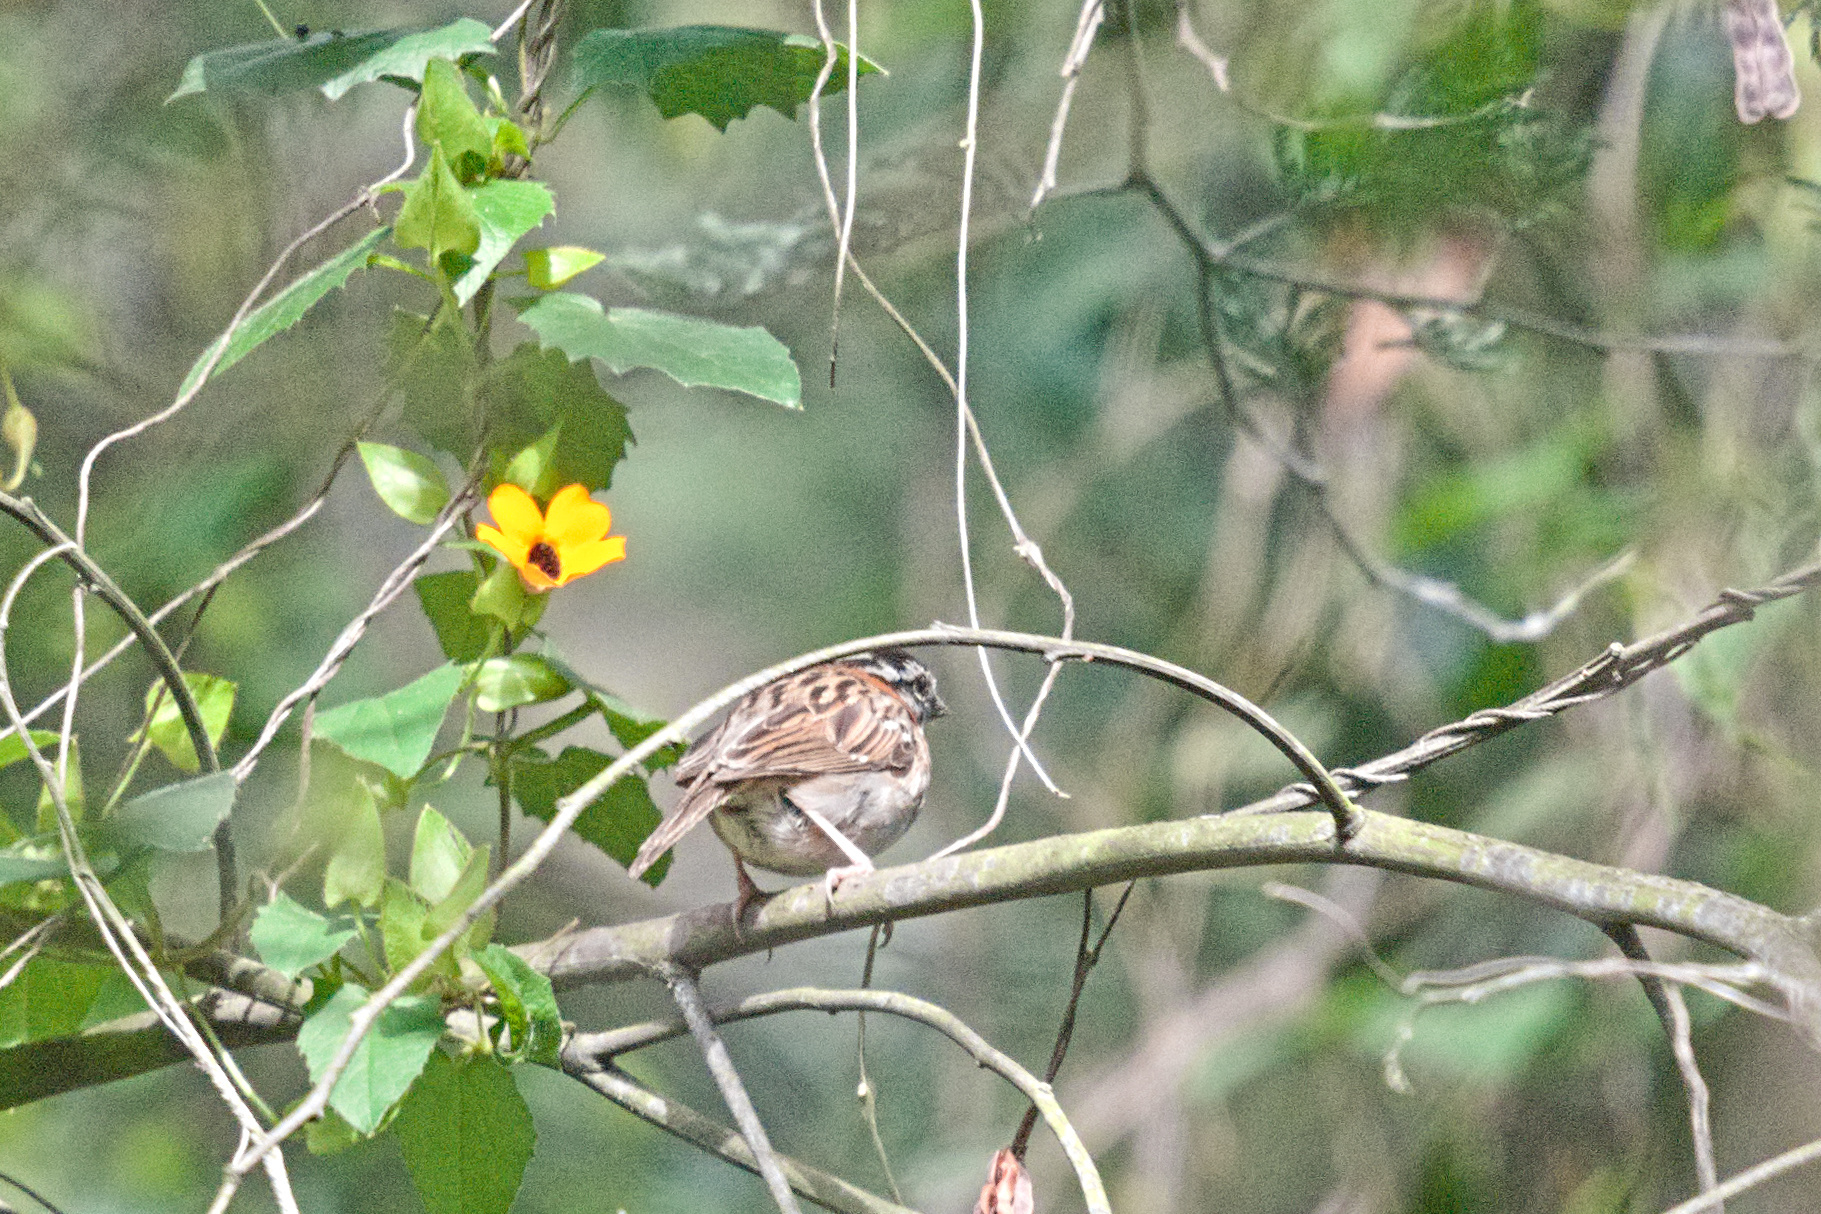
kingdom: Animalia
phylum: Chordata
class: Aves
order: Passeriformes
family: Passerellidae
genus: Zonotrichia
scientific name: Zonotrichia capensis
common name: Rufous-collared sparrow
